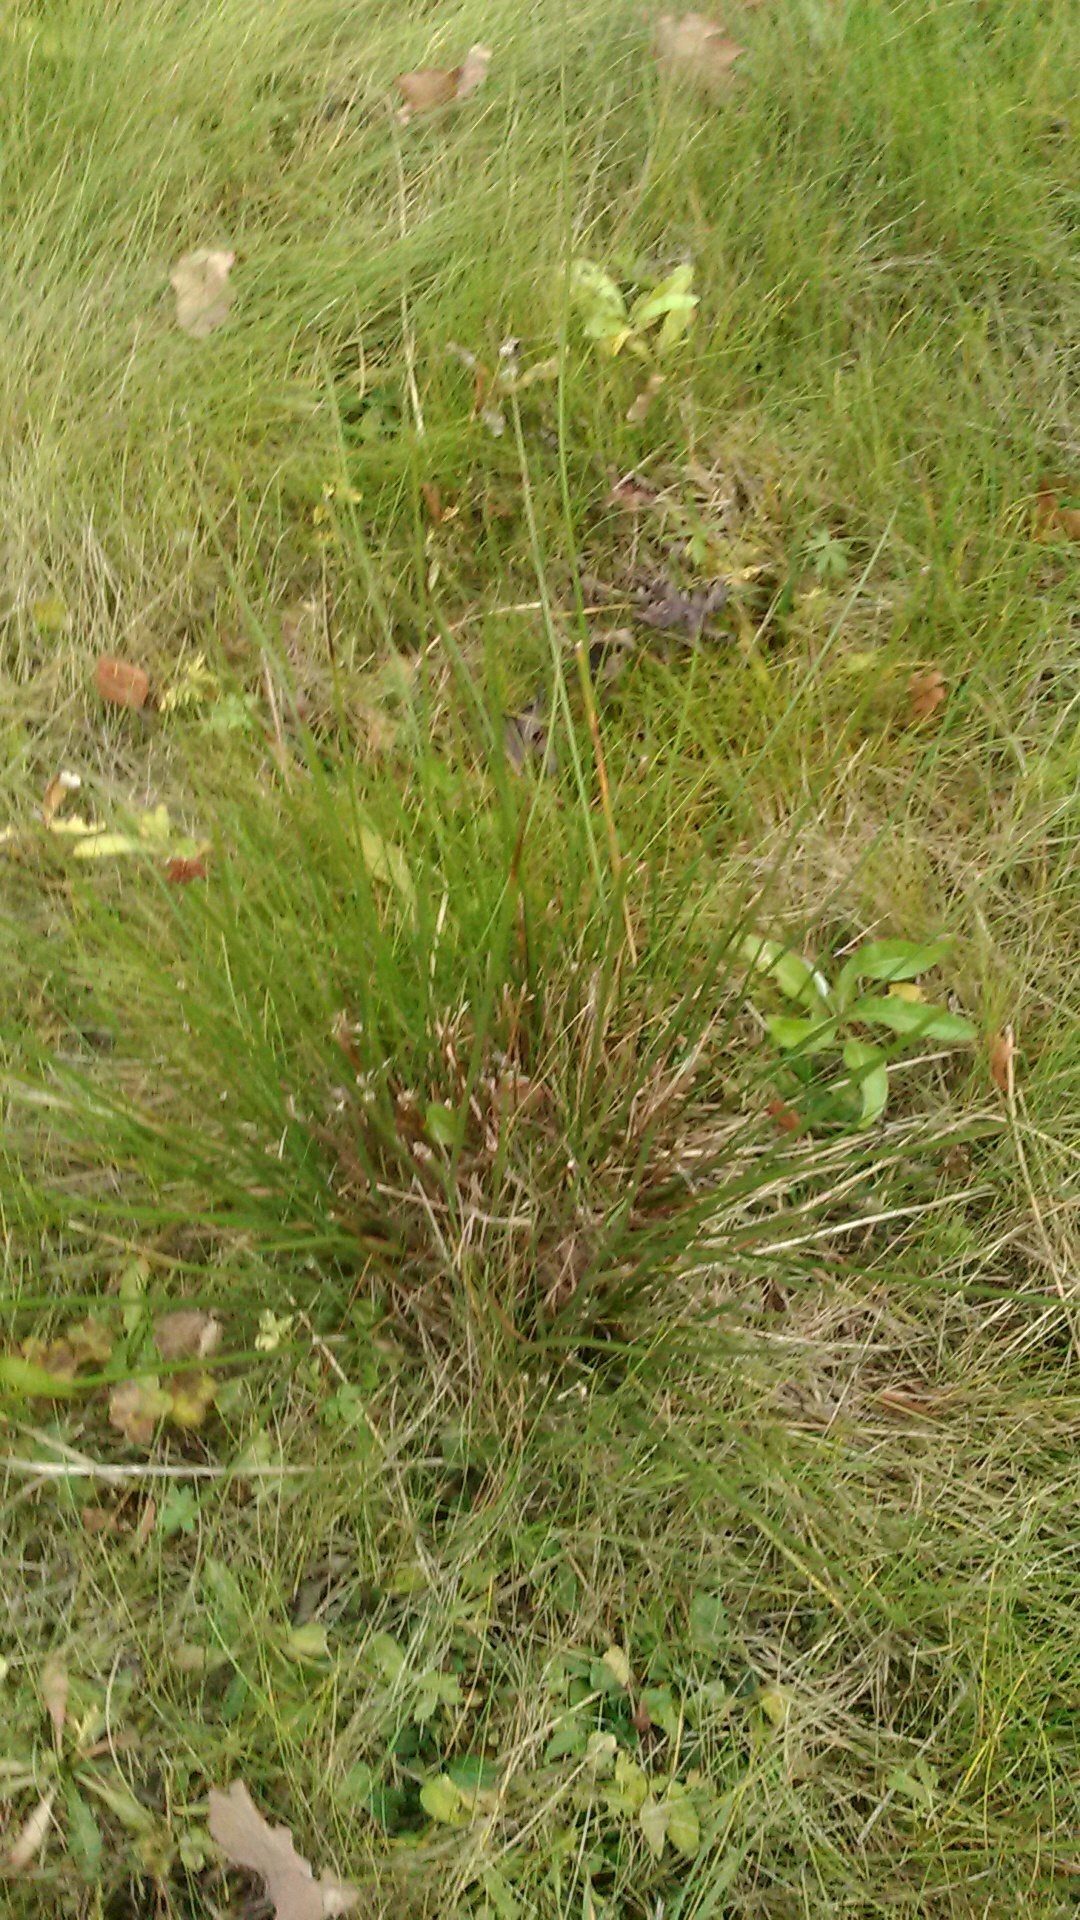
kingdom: Plantae
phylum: Tracheophyta
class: Liliopsida
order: Poales
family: Juncaceae
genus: Juncus
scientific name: Juncus effusus
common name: Soft rush
